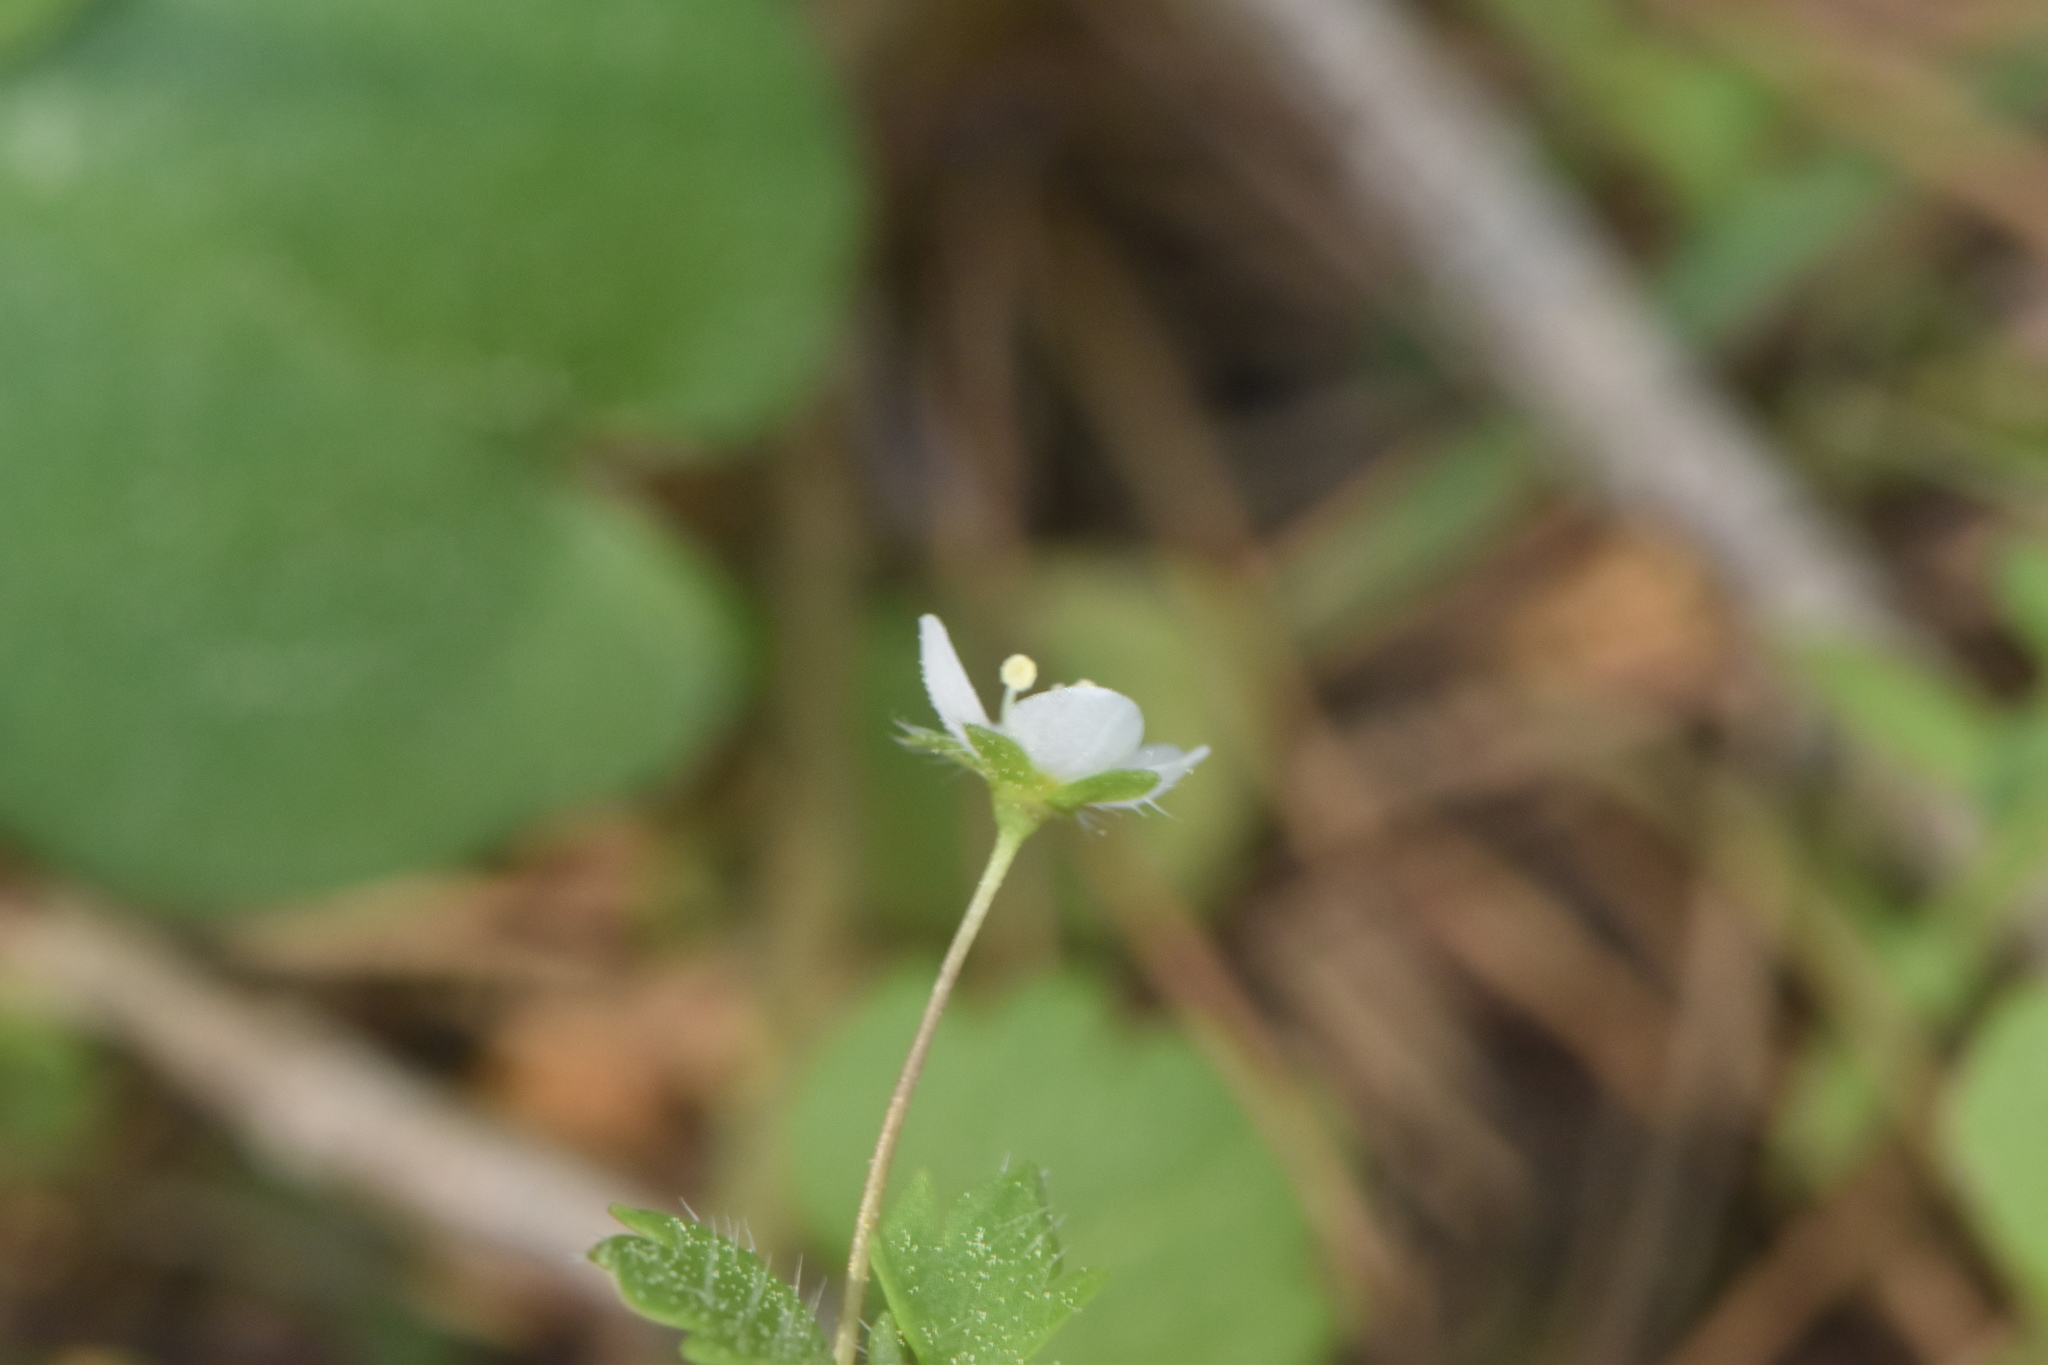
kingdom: Plantae
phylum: Tracheophyta
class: Magnoliopsida
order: Lamiales
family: Plantaginaceae
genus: Veronica
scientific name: Veronica cymbalaria
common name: Pale speedwell
